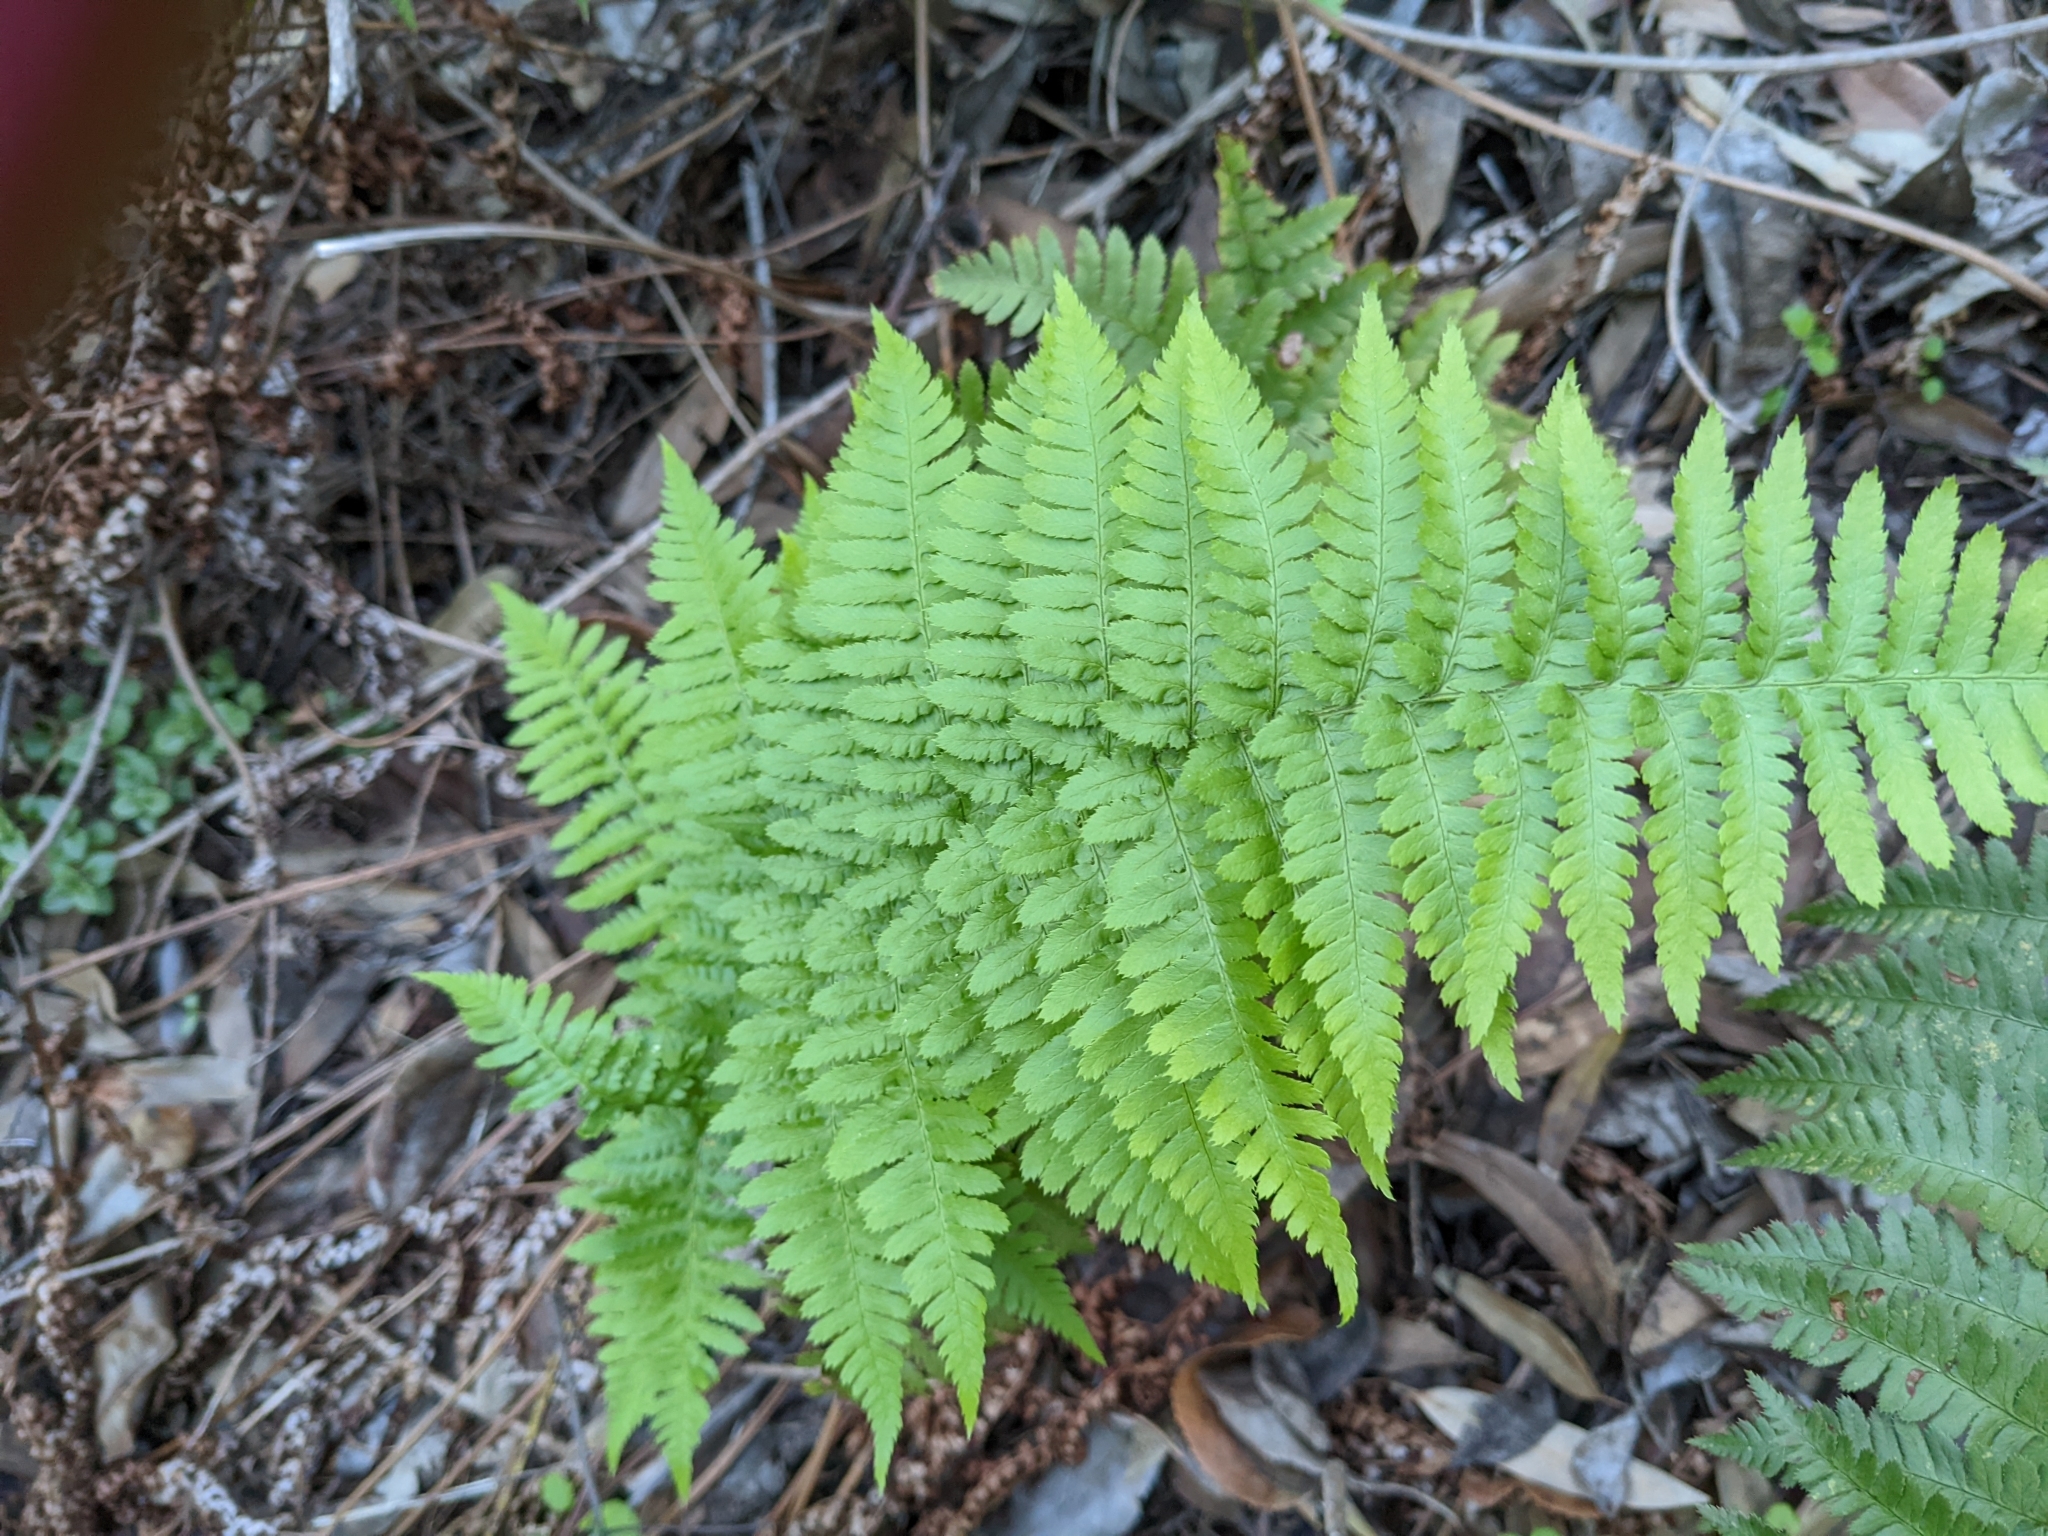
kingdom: Plantae
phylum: Tracheophyta
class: Polypodiopsida
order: Polypodiales
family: Dryopteridaceae
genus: Dryopteris
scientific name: Dryopteris arguta
